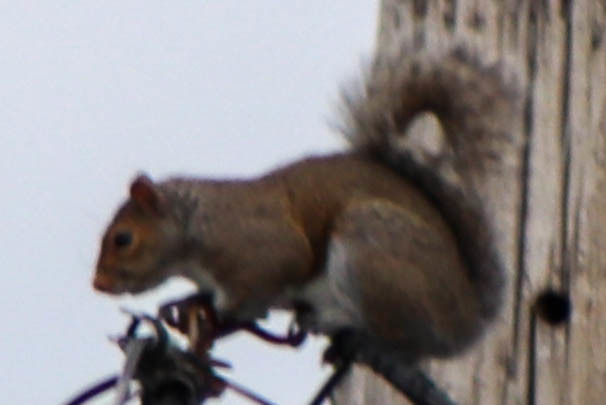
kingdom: Animalia
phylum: Chordata
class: Mammalia
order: Rodentia
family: Sciuridae
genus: Sciurus
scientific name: Sciurus carolinensis
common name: Eastern gray squirrel
